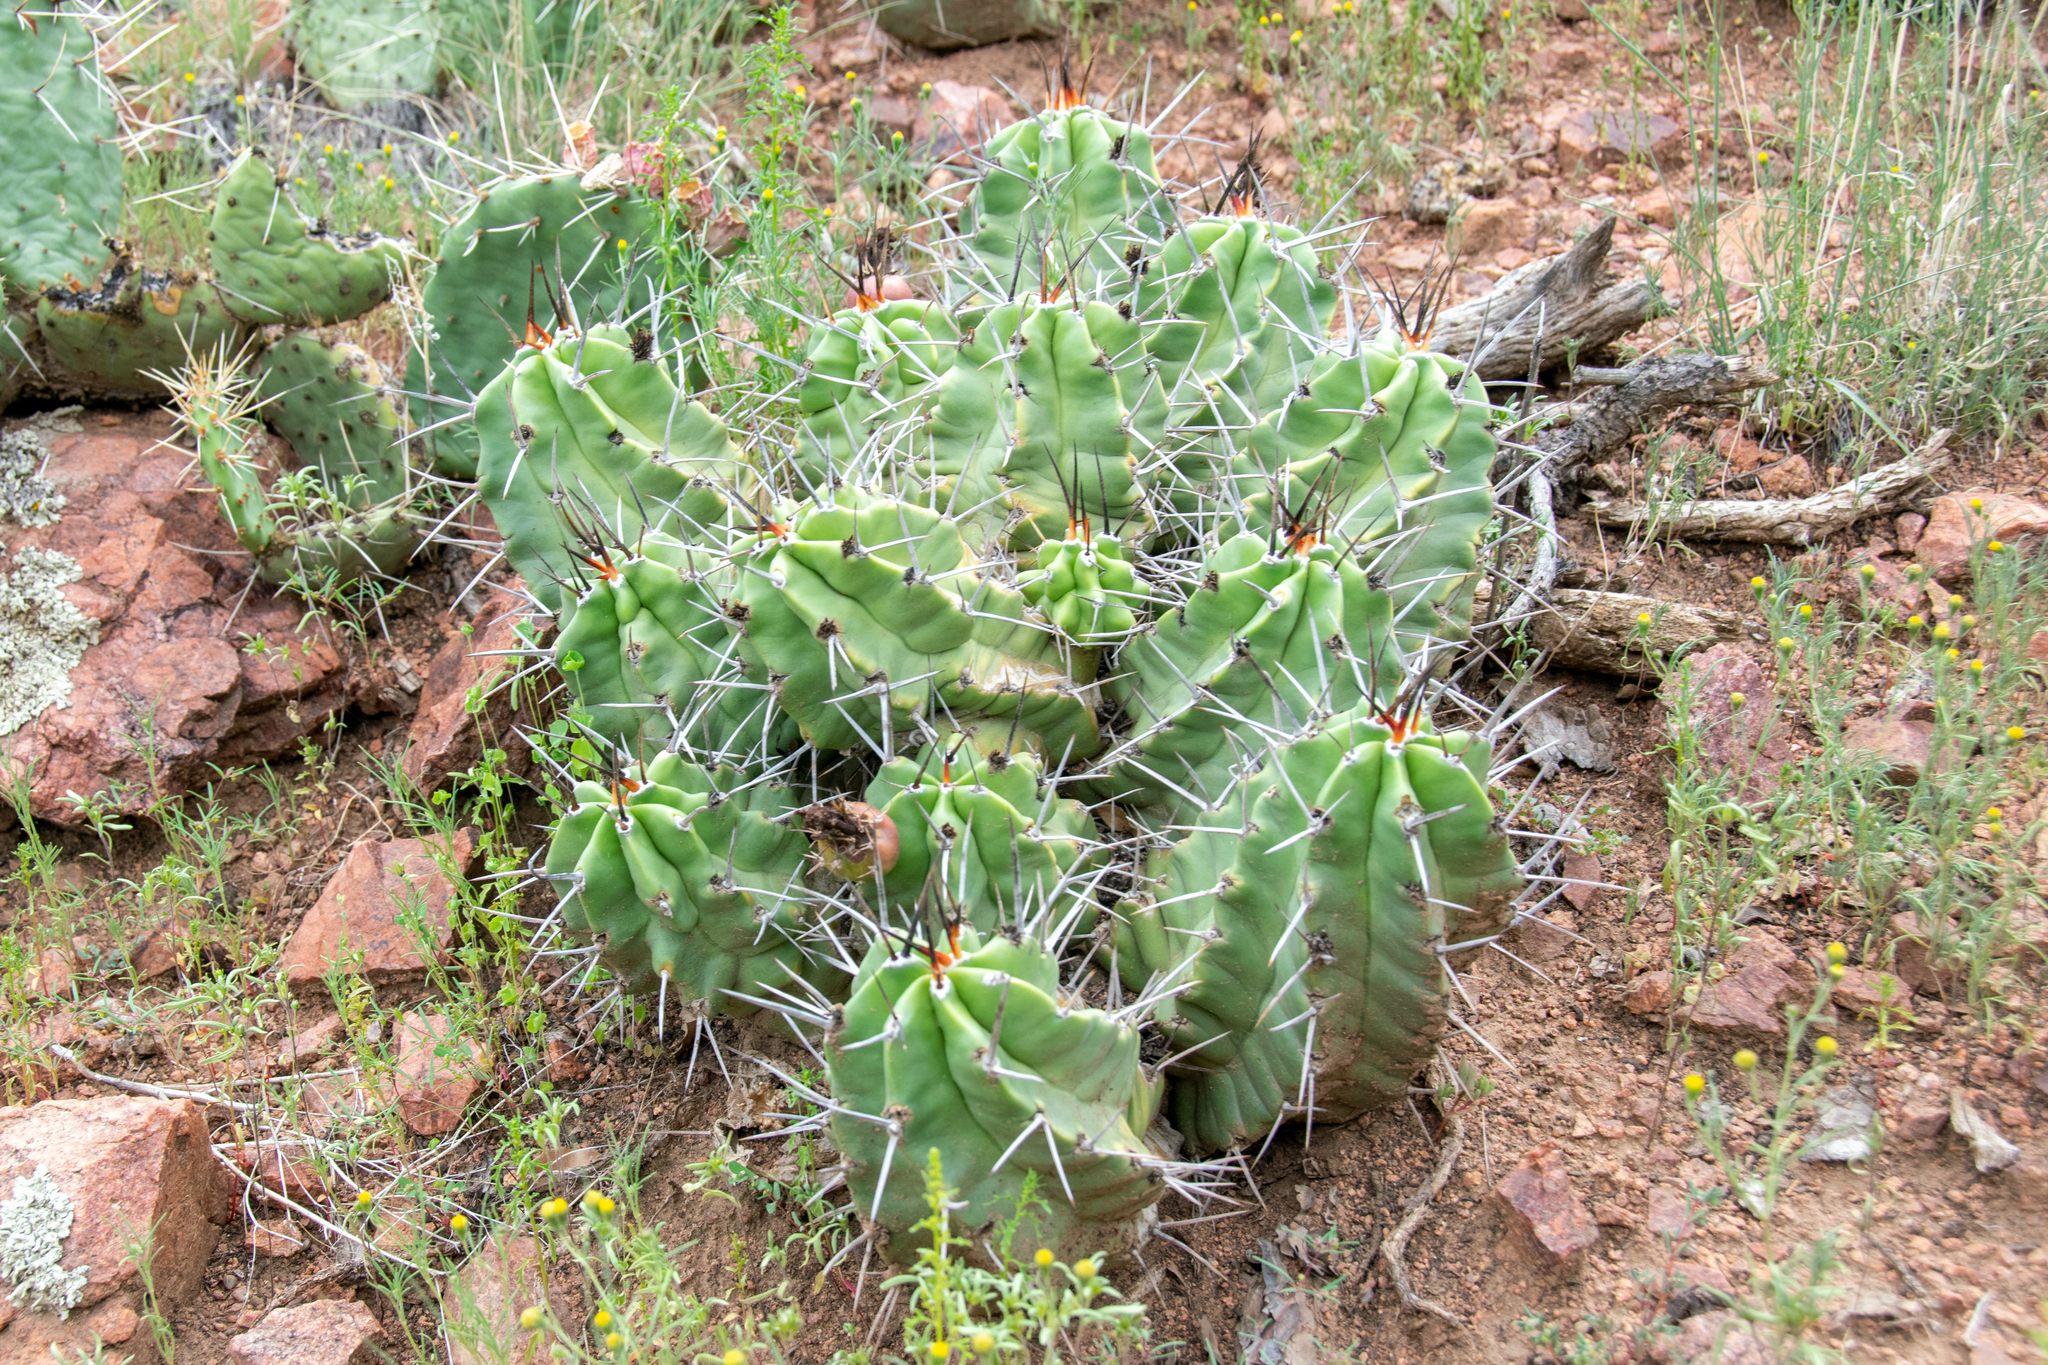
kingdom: Plantae
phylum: Tracheophyta
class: Magnoliopsida
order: Caryophyllales
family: Cactaceae
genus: Echinocereus
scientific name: Echinocereus triglochidiatus
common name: Claretcup hedgehog
